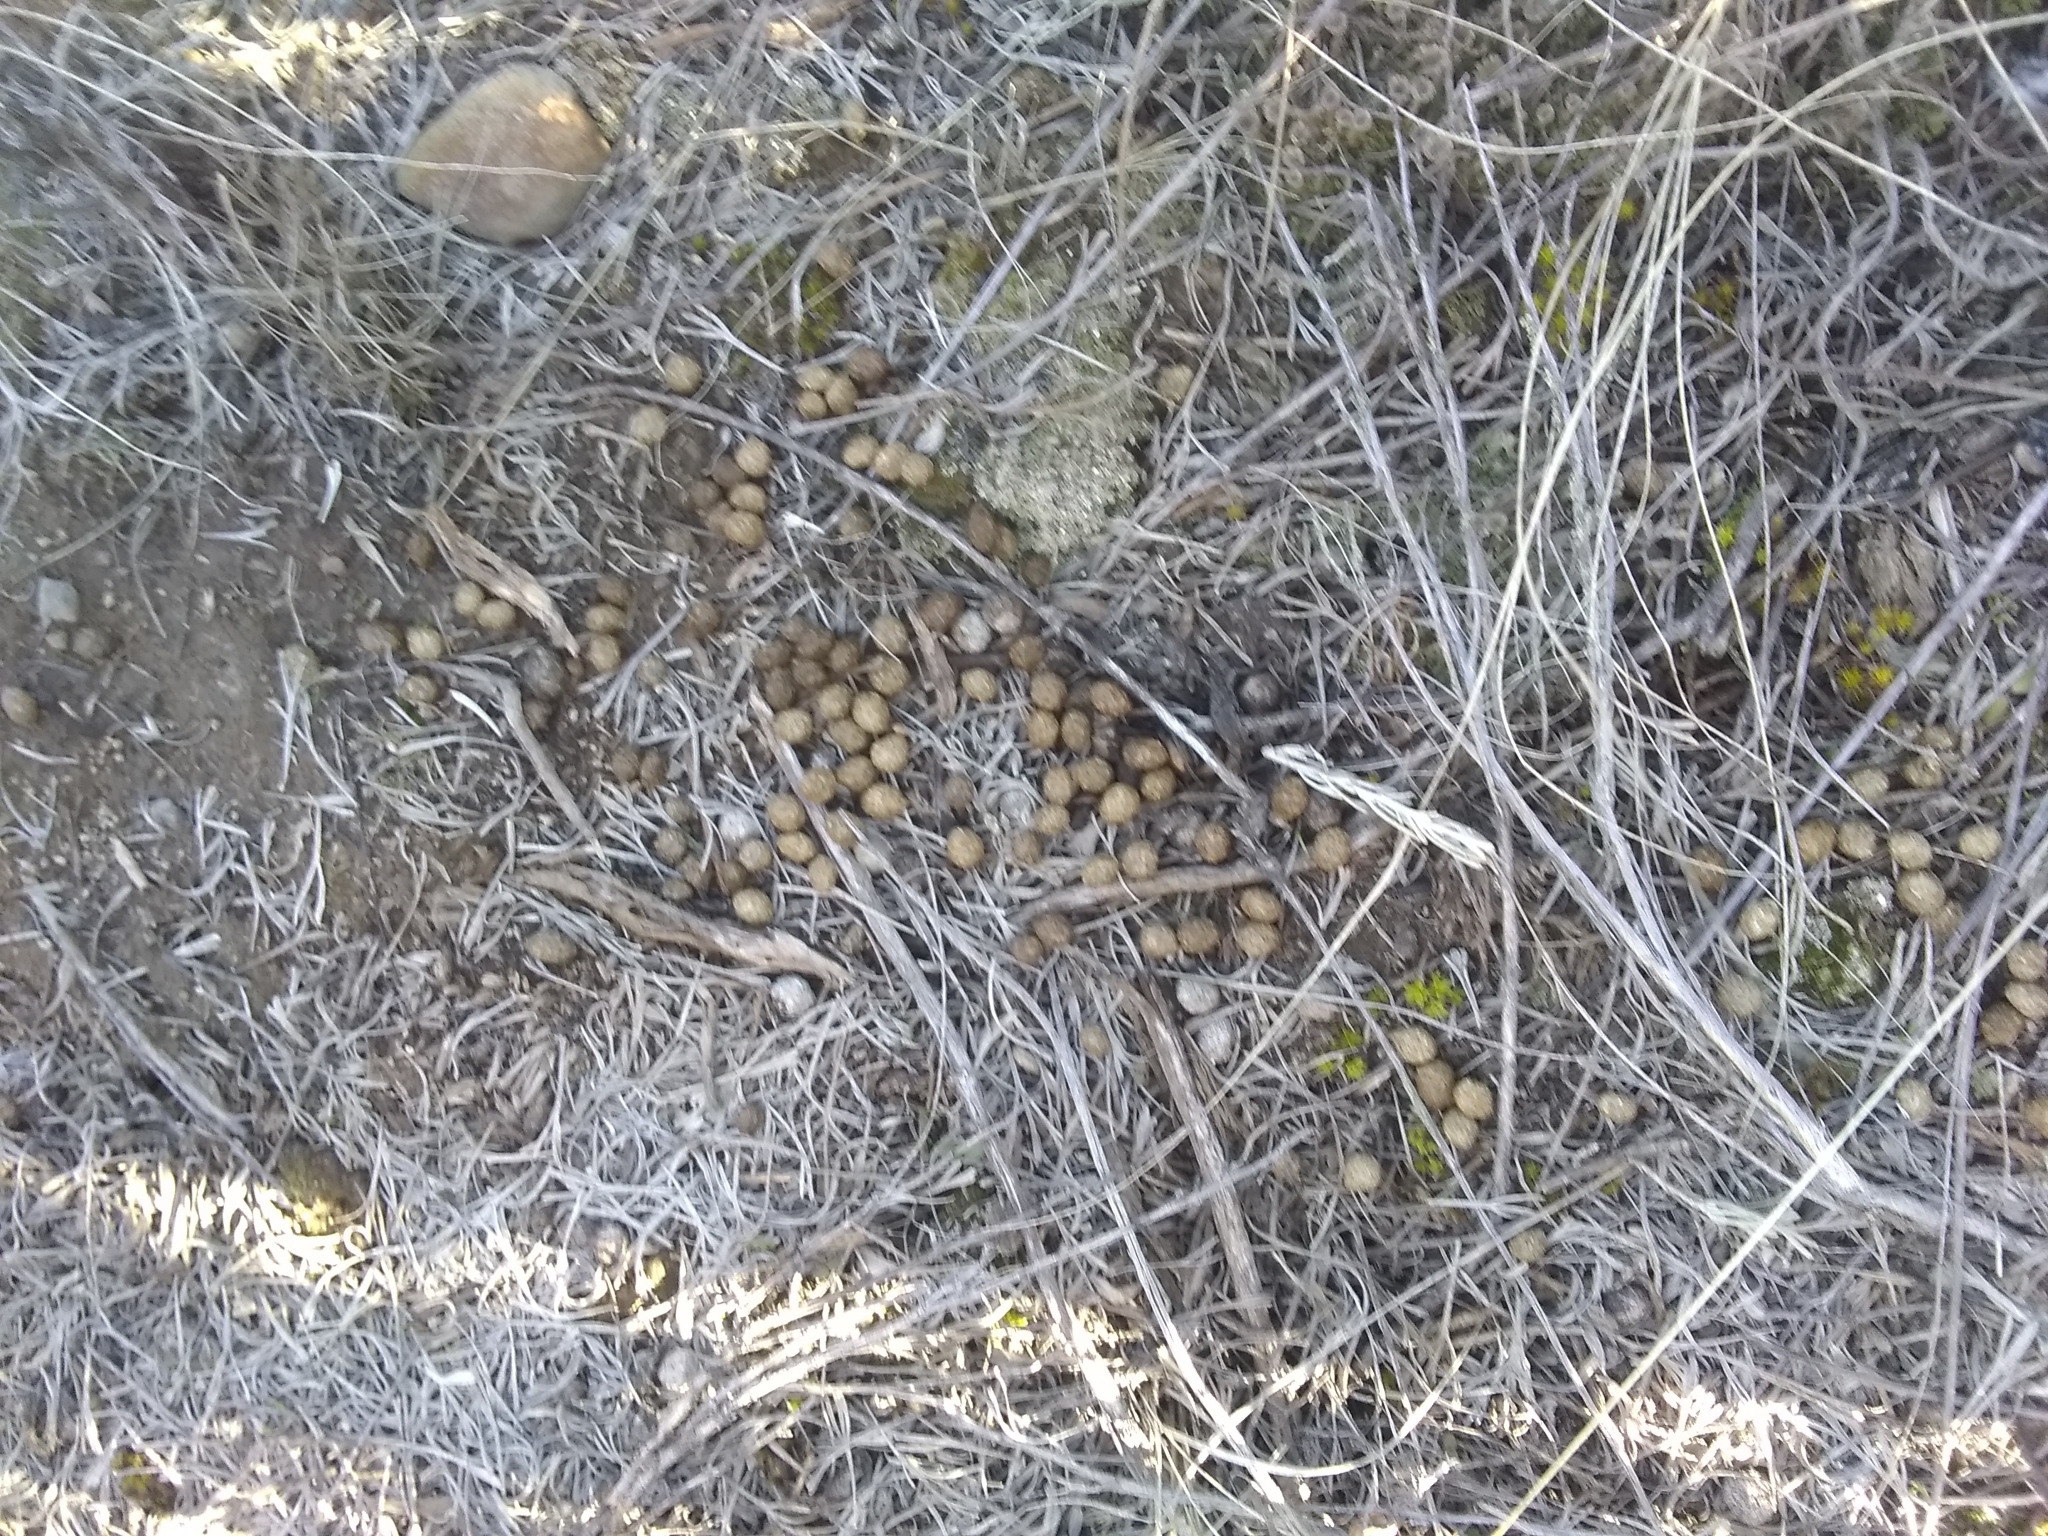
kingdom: Animalia
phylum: Chordata
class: Mammalia
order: Lagomorpha
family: Leporidae
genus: Brachylagus
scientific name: Brachylagus idahoensis
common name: Pygmy rabbit
